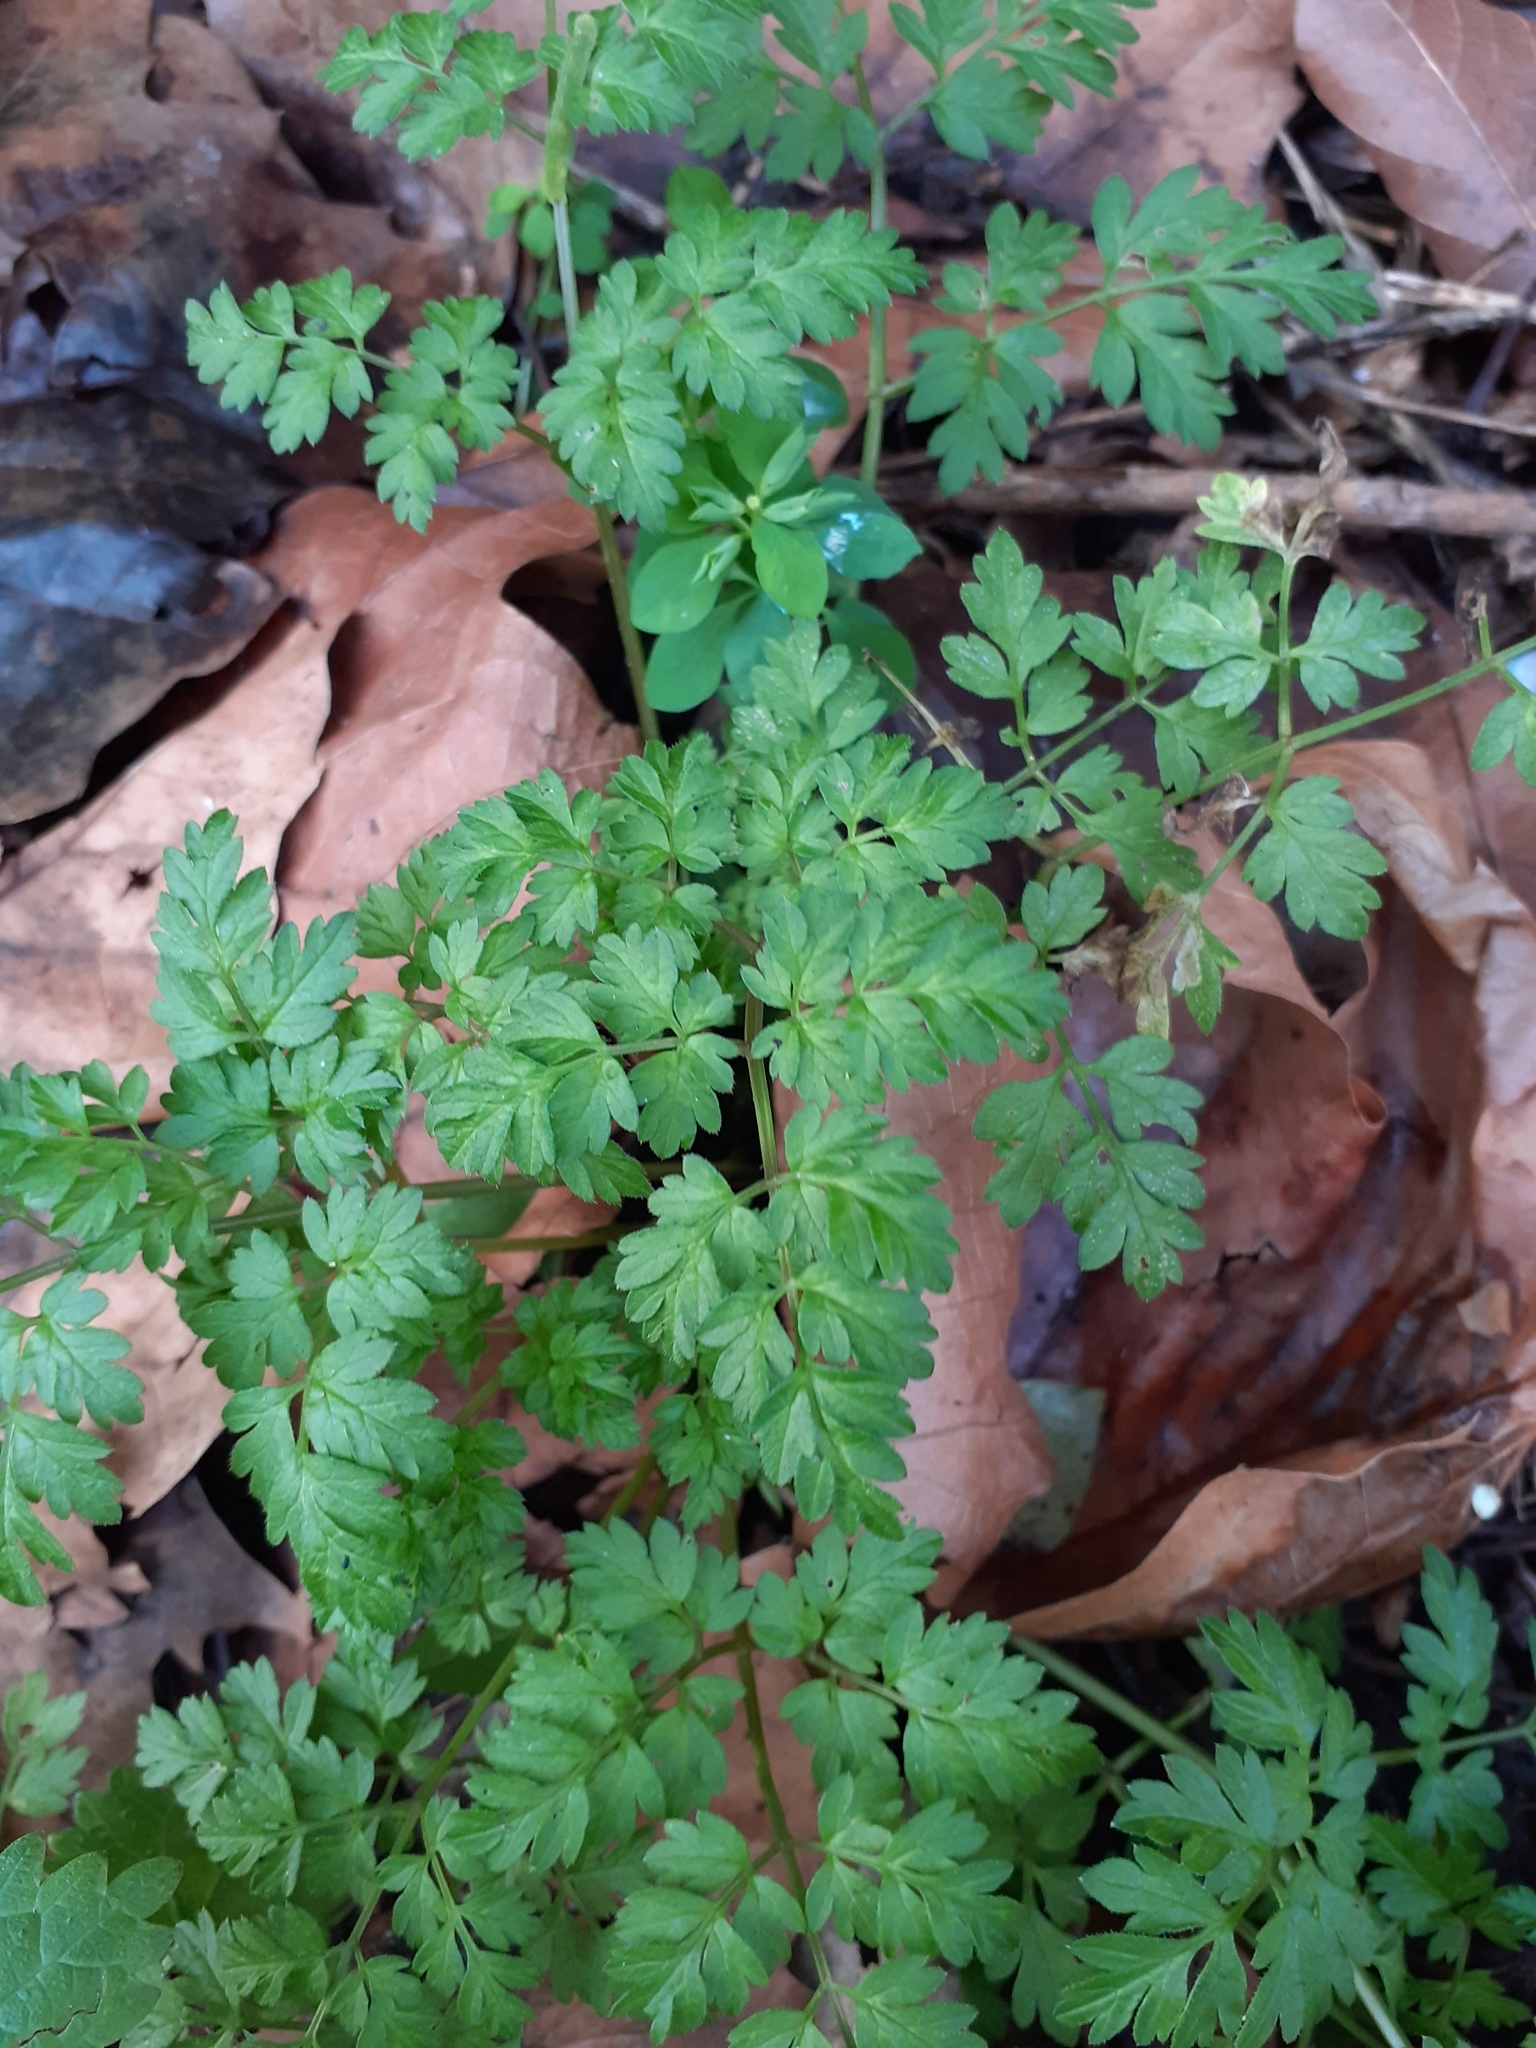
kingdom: Plantae
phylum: Tracheophyta
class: Magnoliopsida
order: Apiales
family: Apiaceae
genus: Anthriscus
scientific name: Anthriscus sylvestris
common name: Cow parsley
